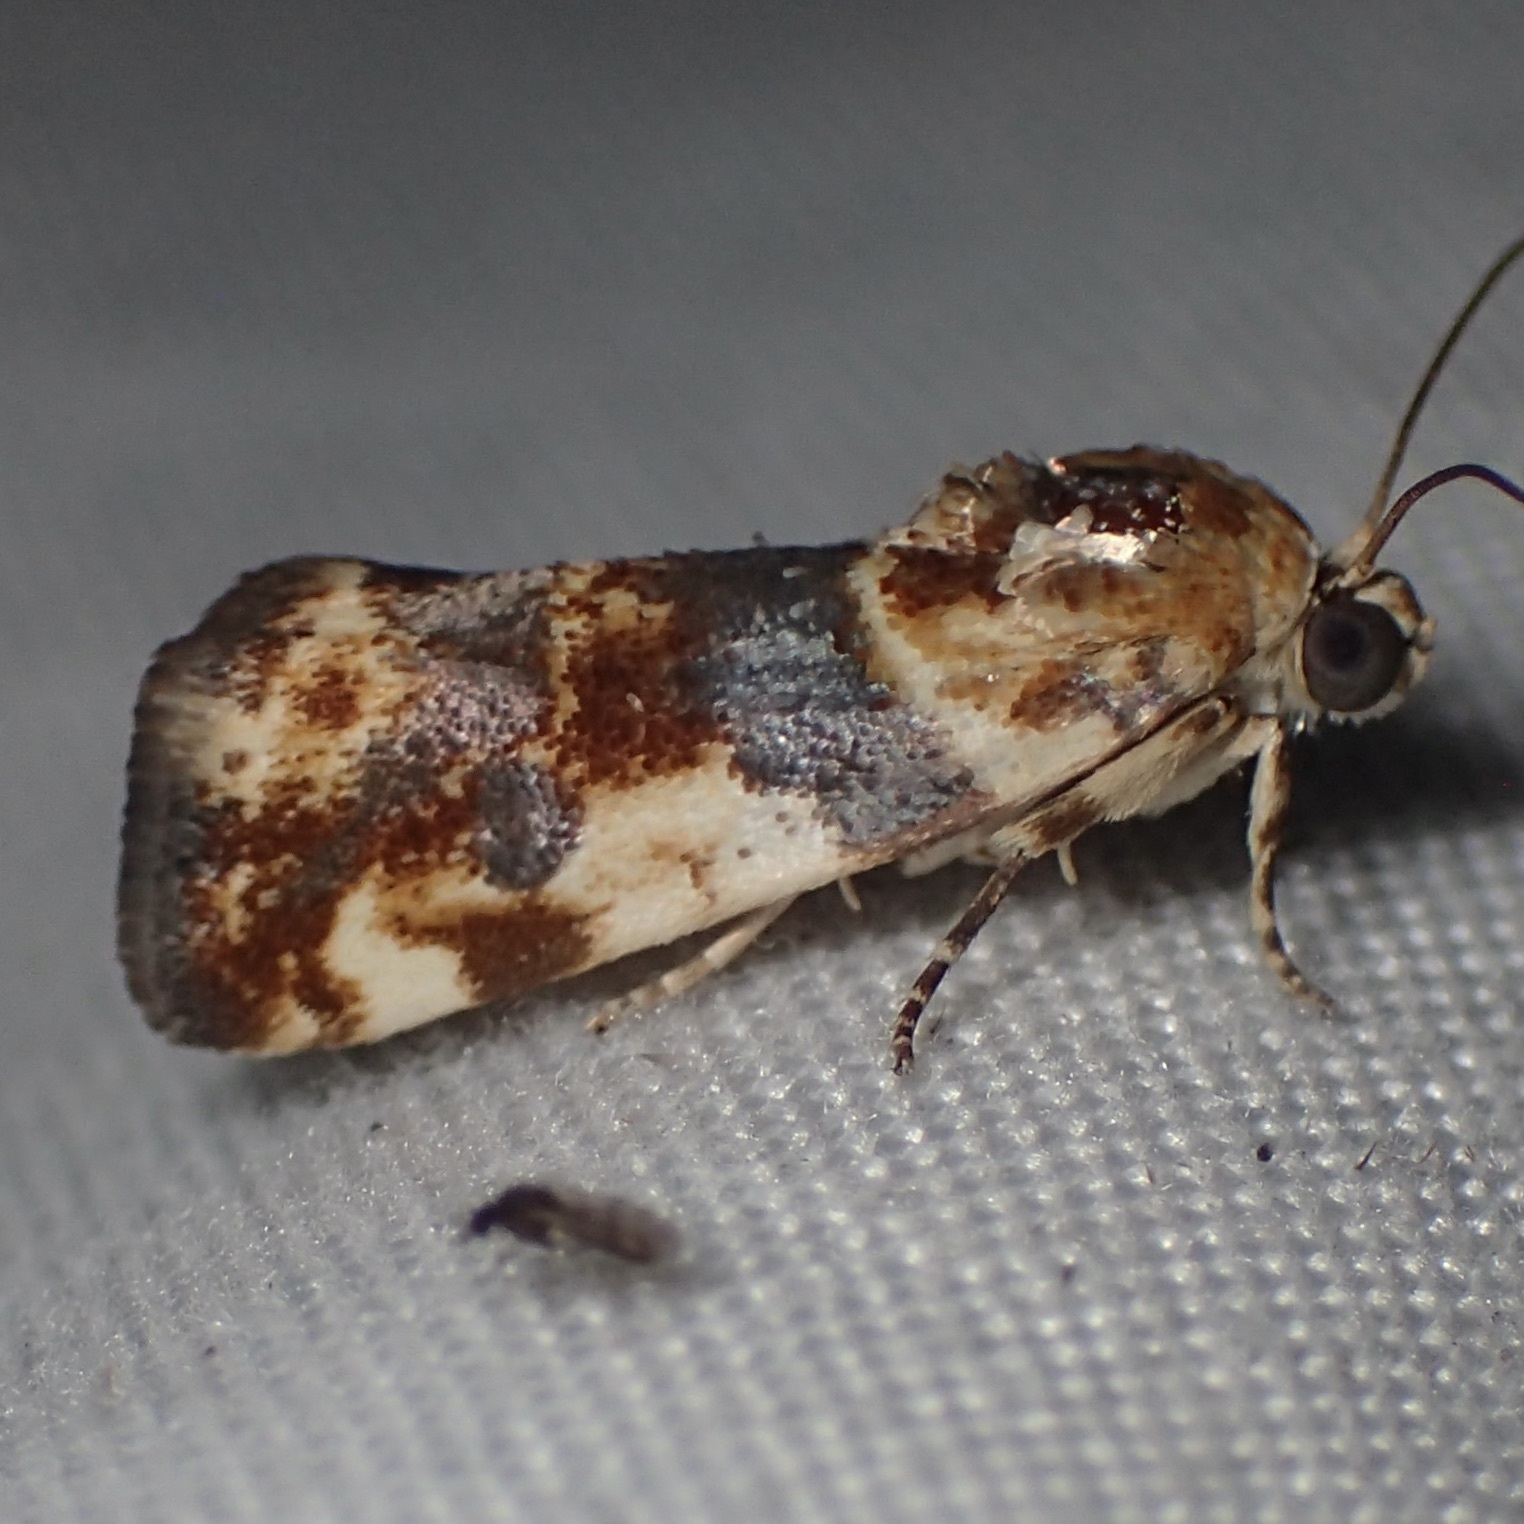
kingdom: Animalia
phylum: Arthropoda
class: Insecta
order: Lepidoptera
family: Noctuidae
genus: Acontia
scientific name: Acontia obatra
